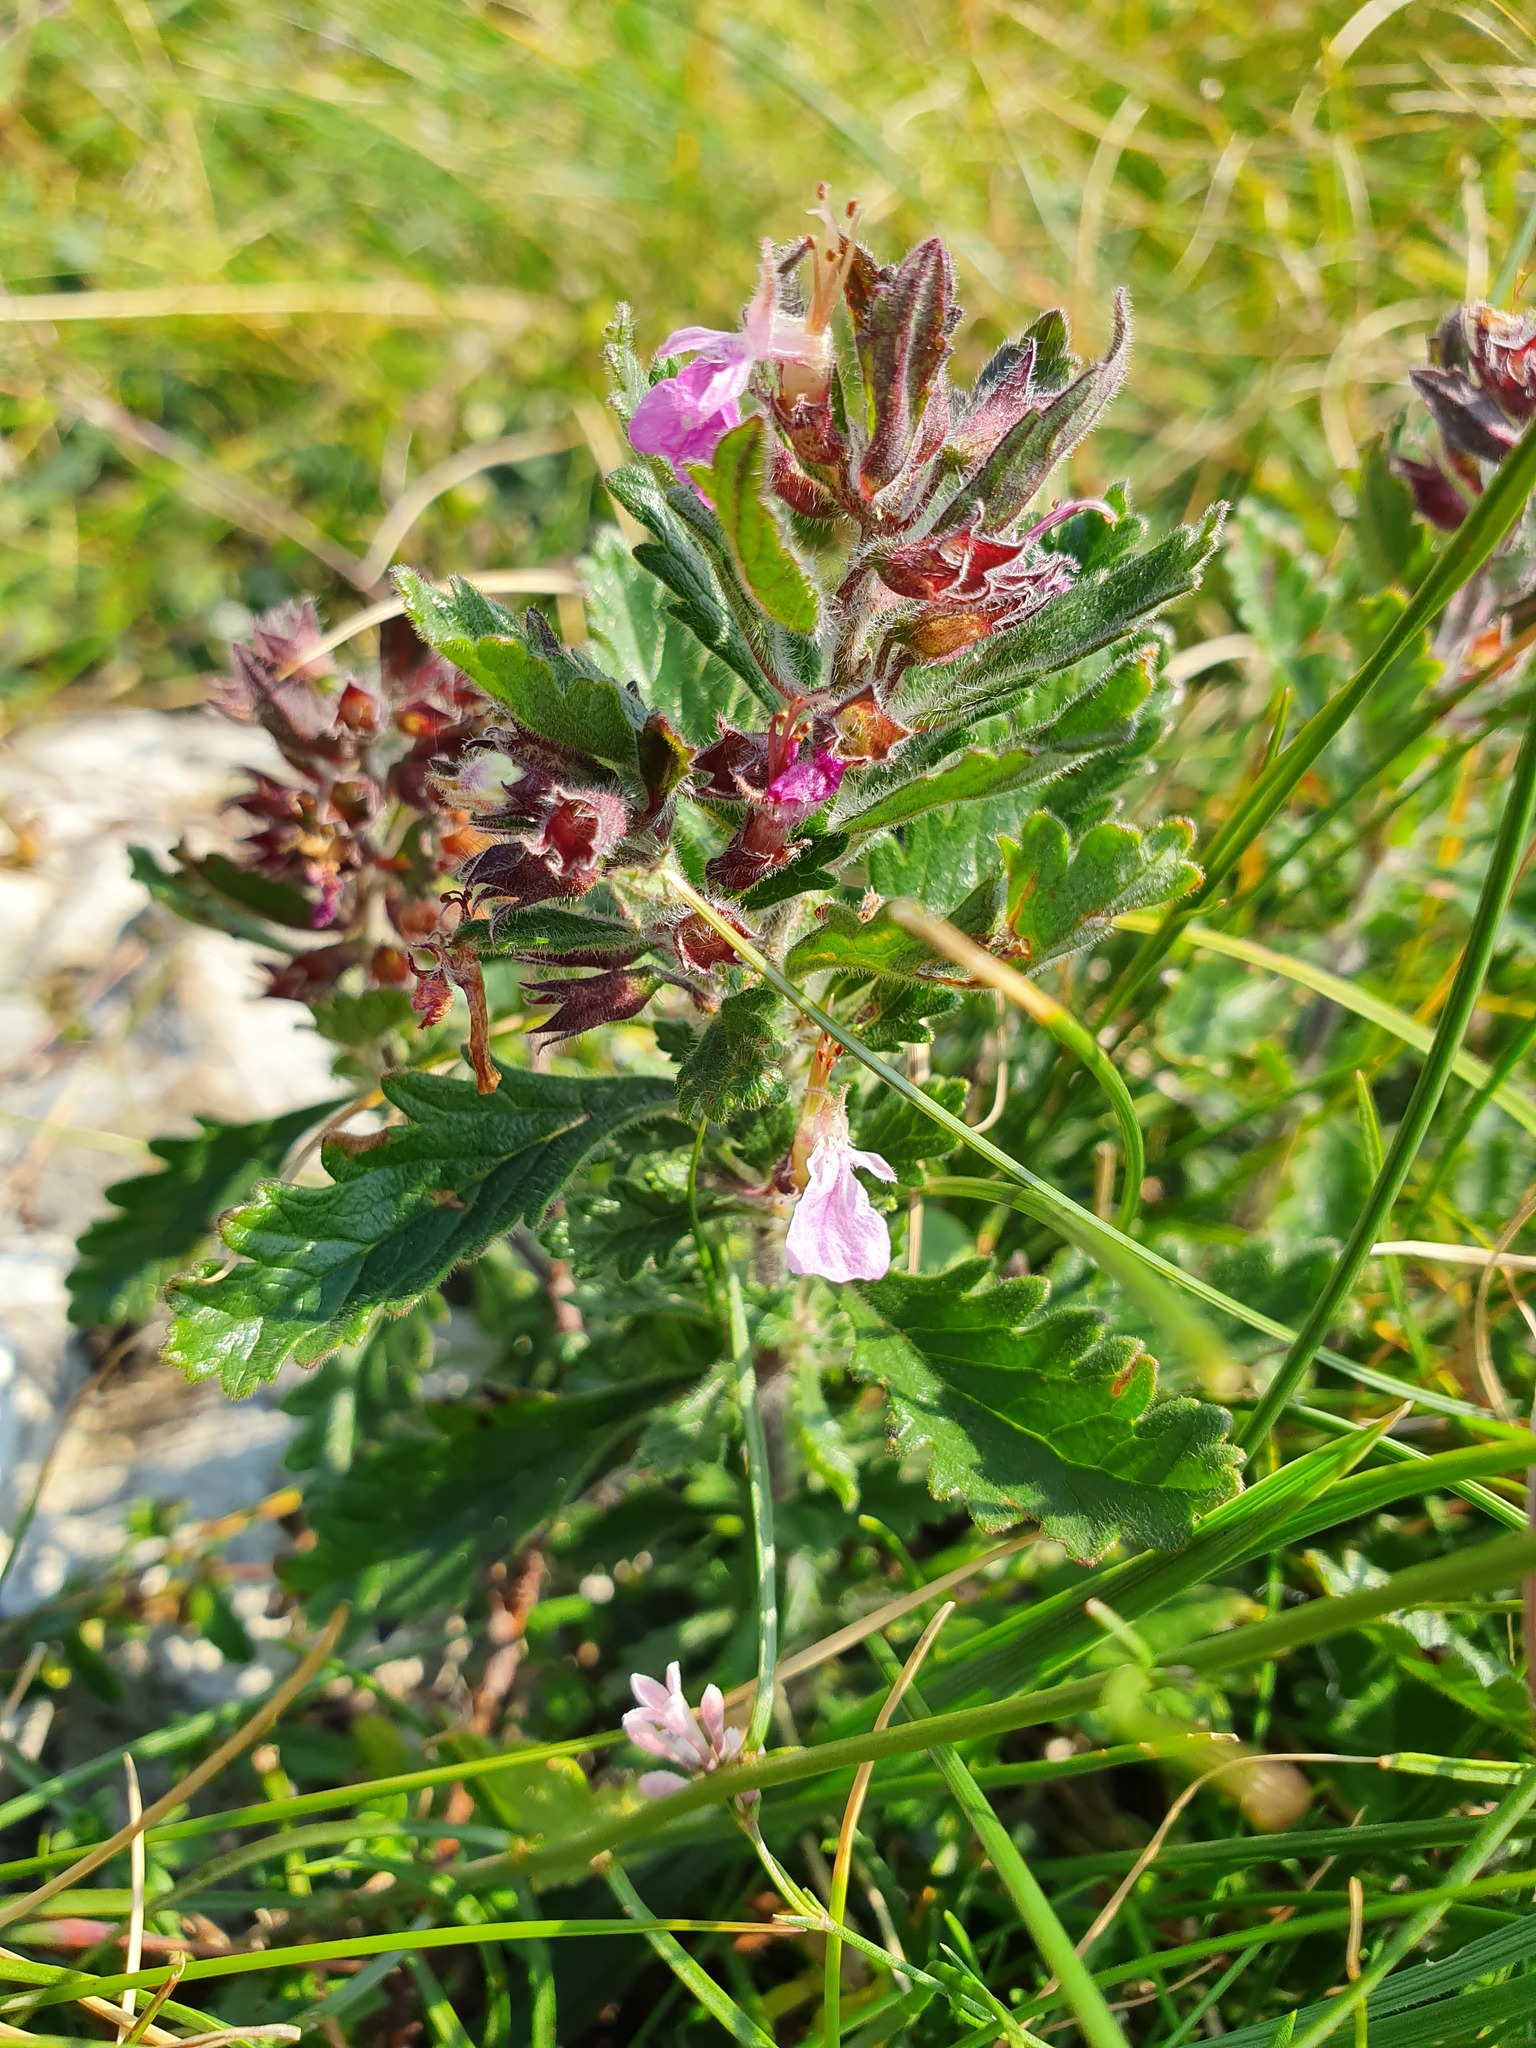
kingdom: Plantae
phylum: Tracheophyta
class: Magnoliopsida
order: Lamiales
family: Lamiaceae
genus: Teucrium
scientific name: Teucrium chamaedrys
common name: Wall germander
